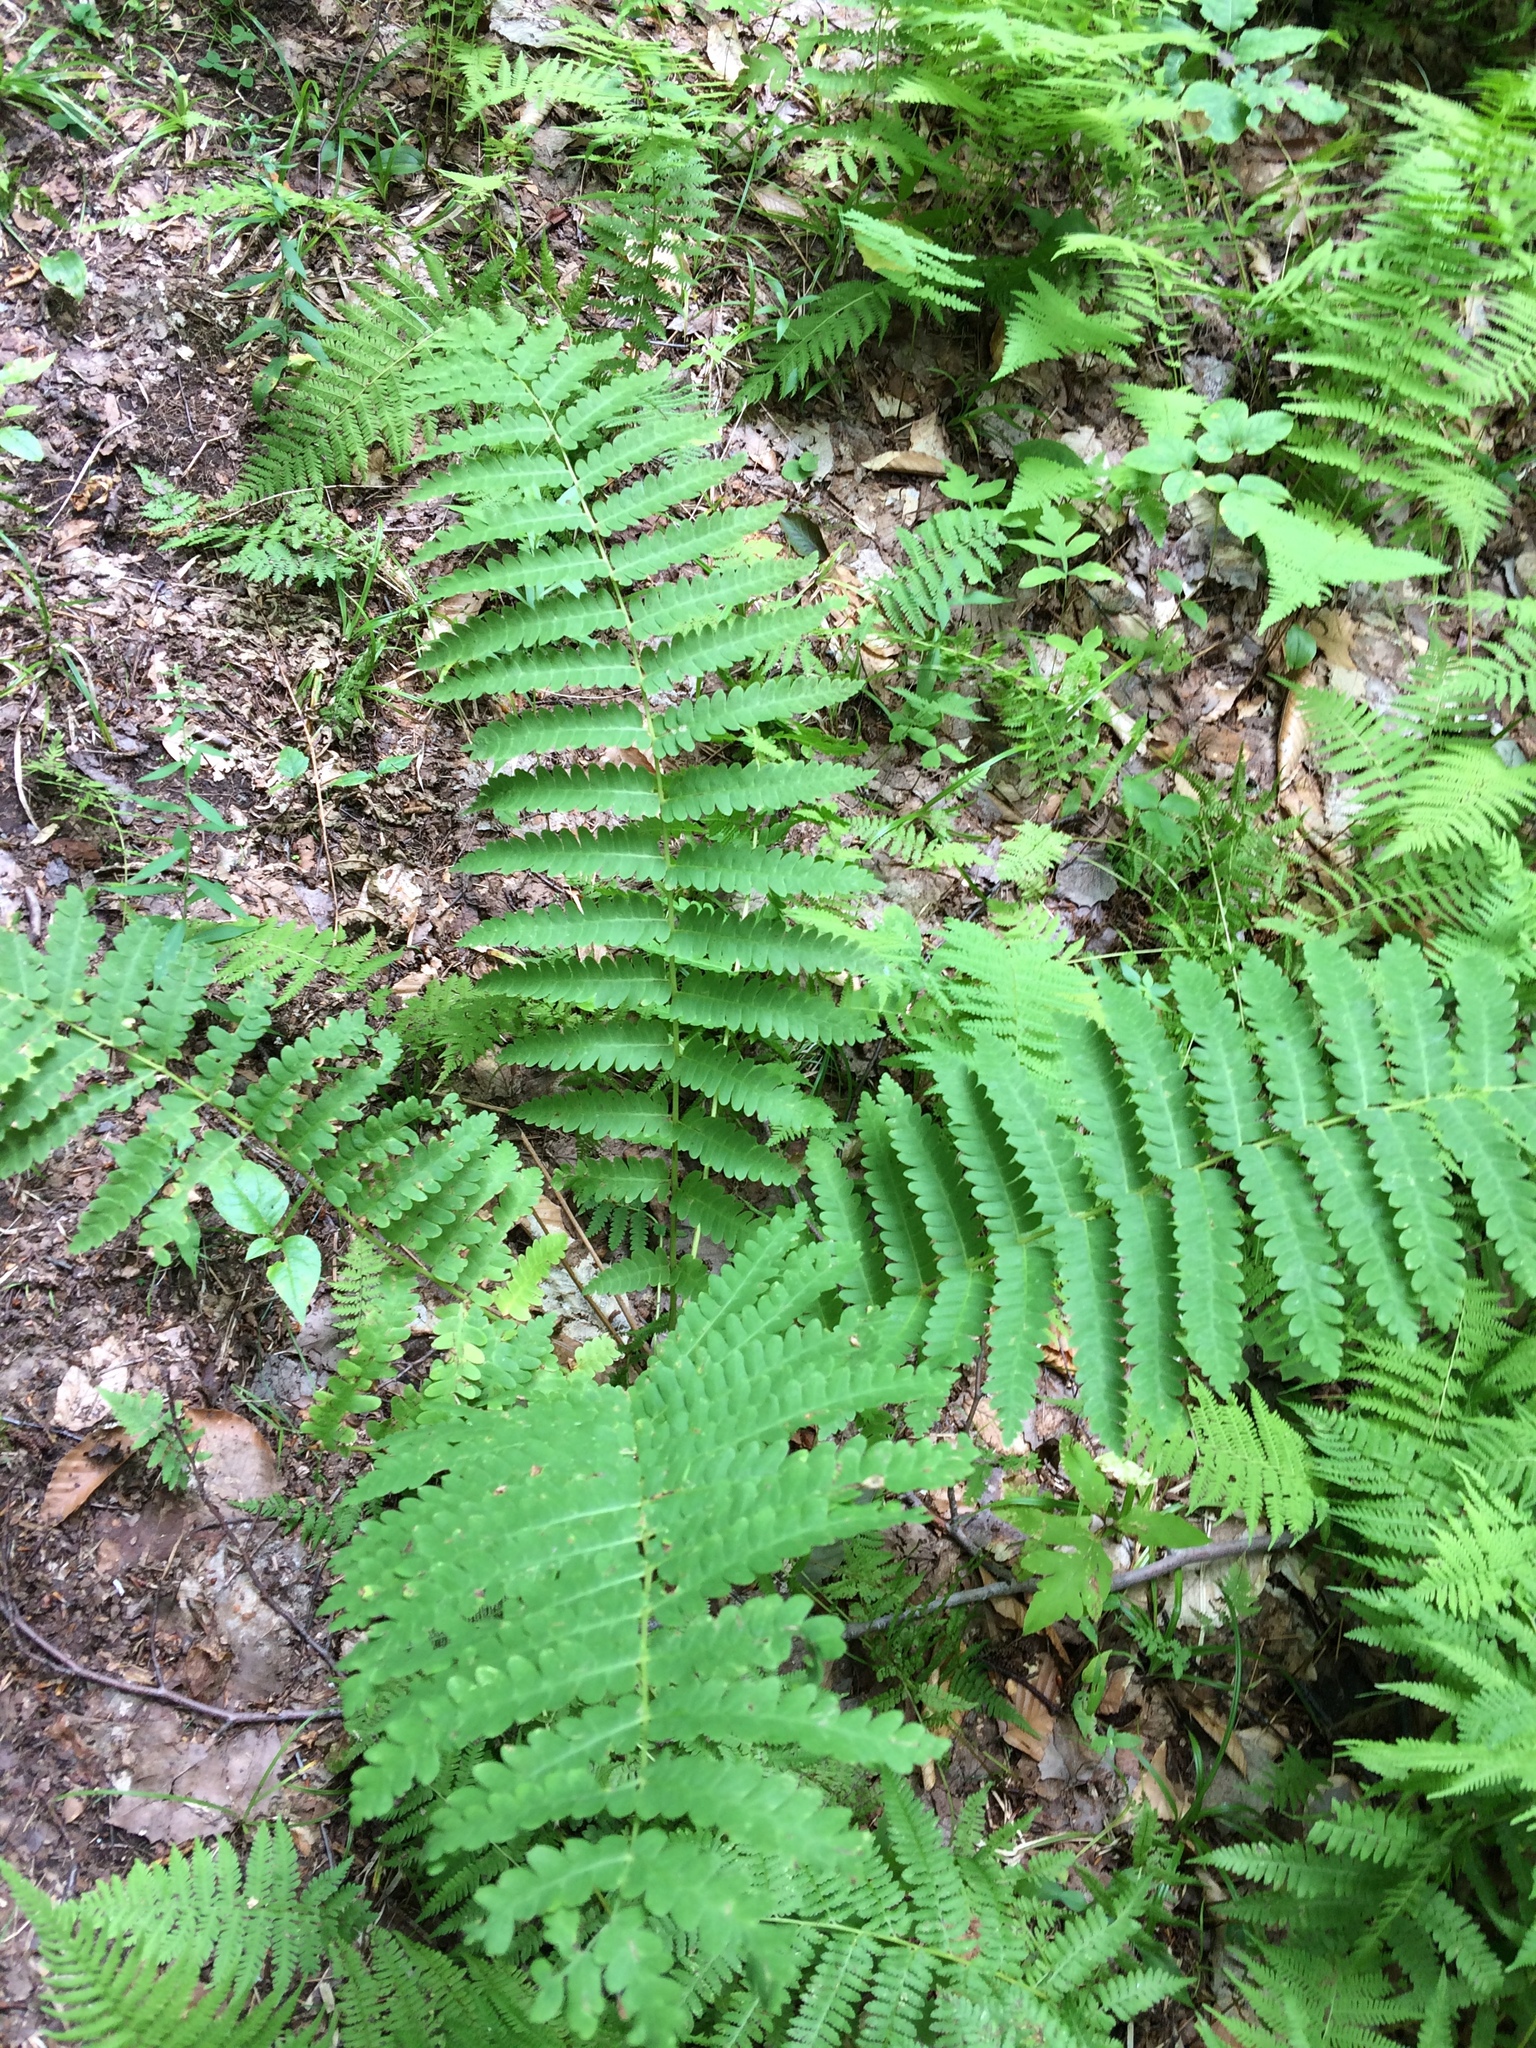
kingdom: Plantae
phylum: Tracheophyta
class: Polypodiopsida
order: Osmundales
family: Osmundaceae
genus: Claytosmunda
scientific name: Claytosmunda claytoniana
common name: Clayton's fern
